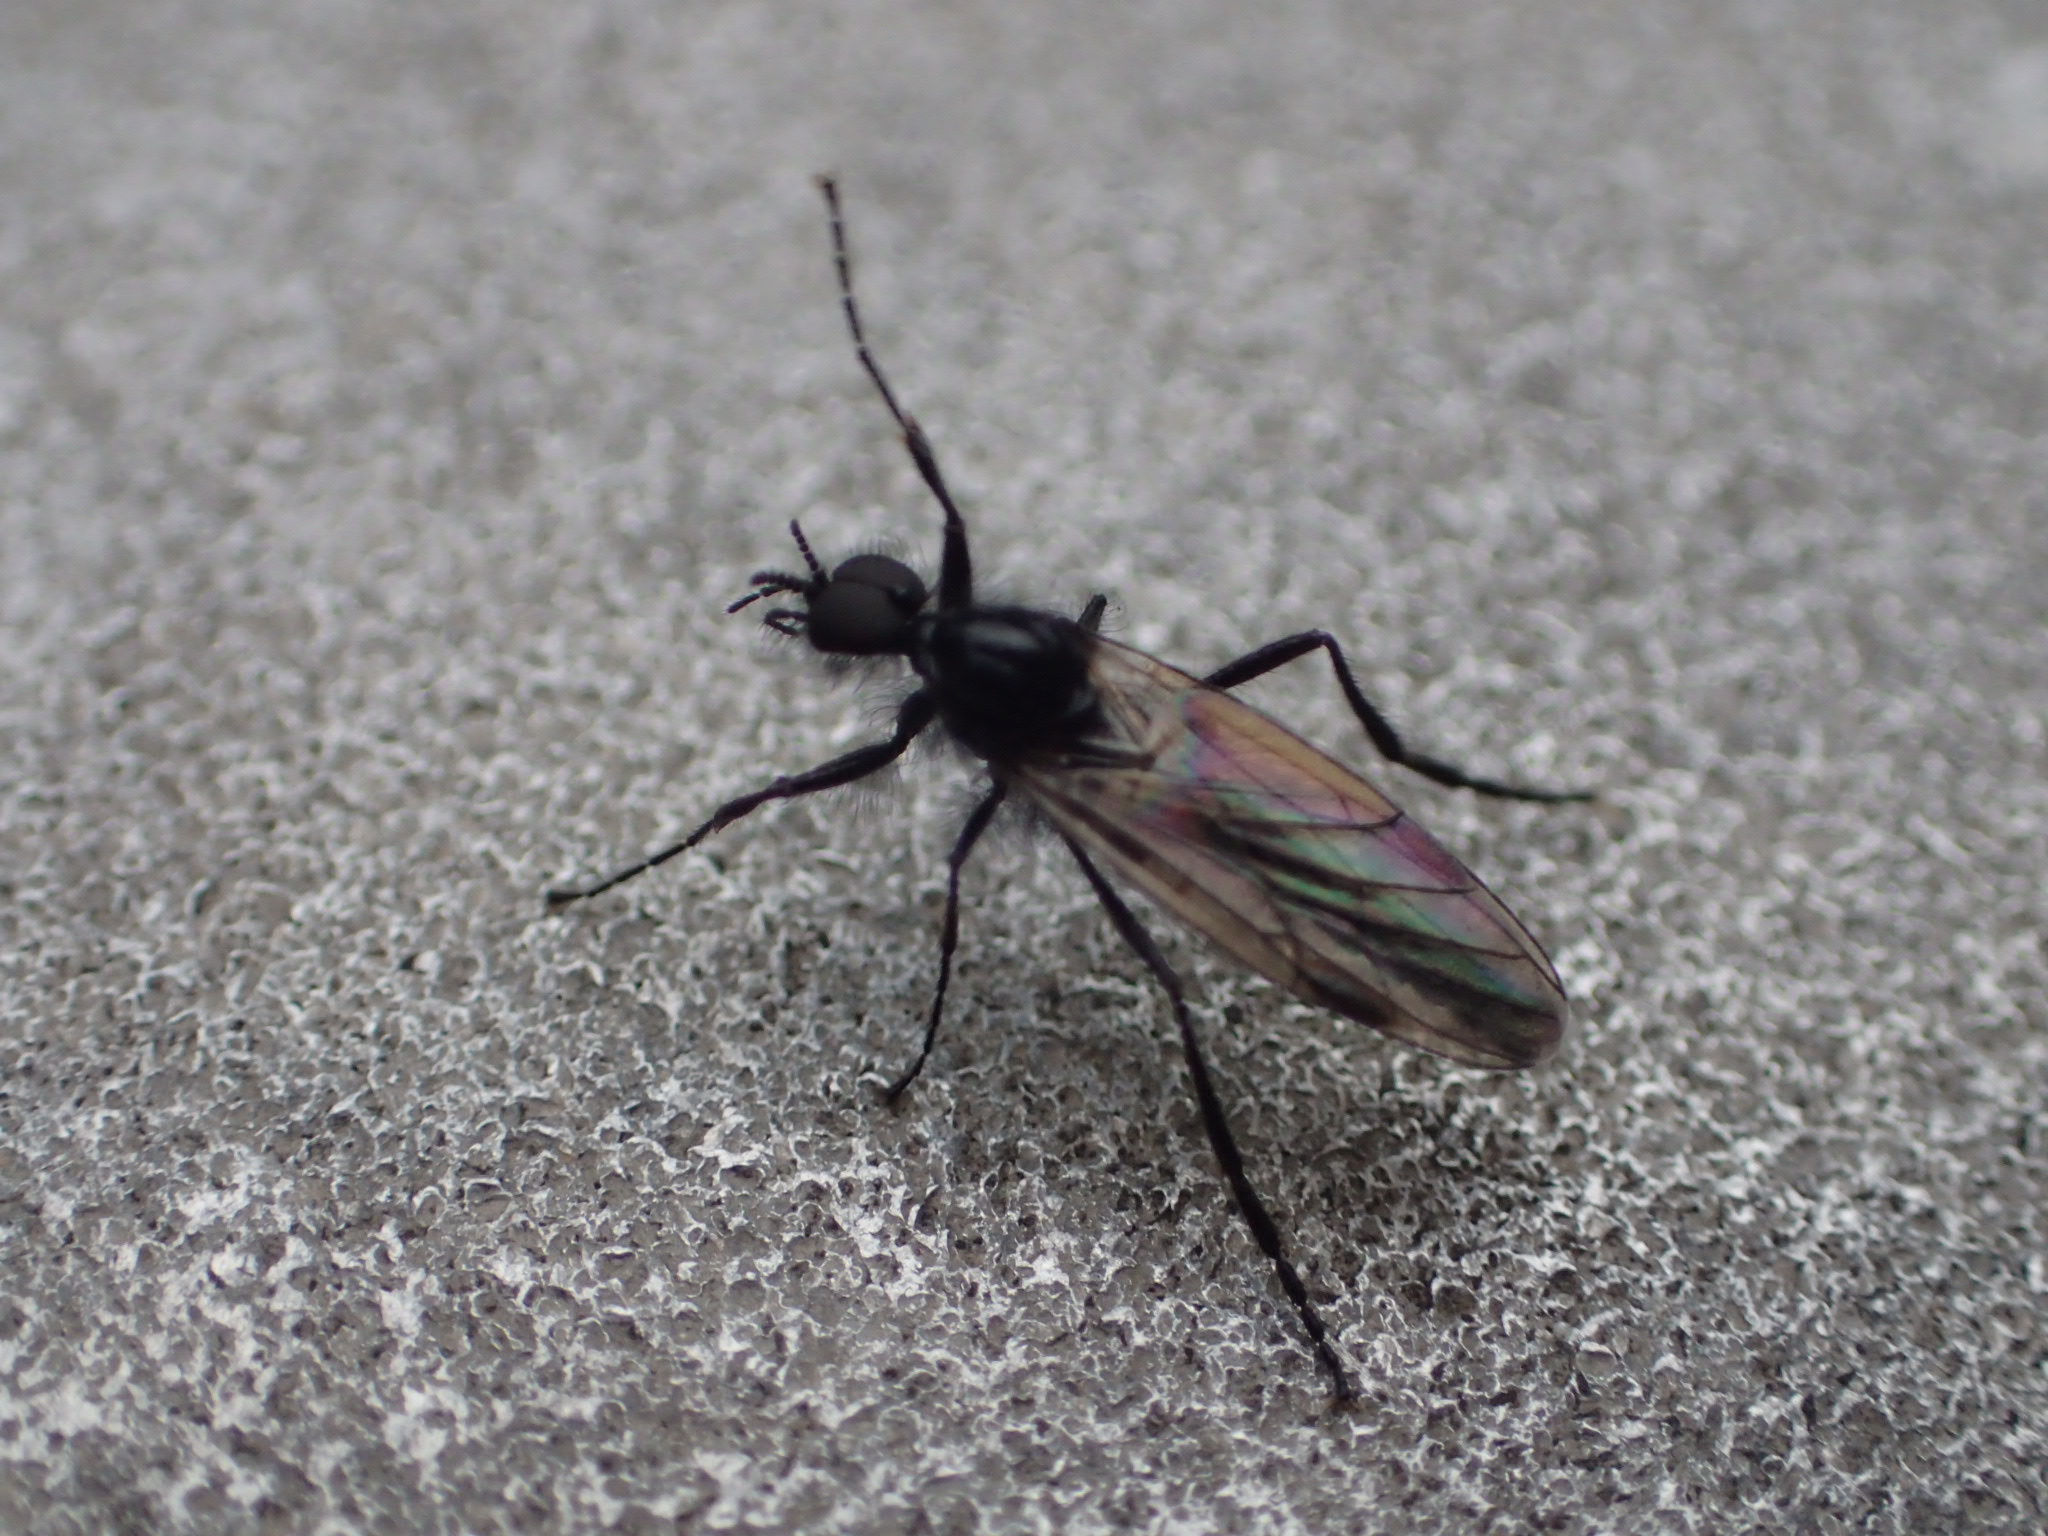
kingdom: Animalia
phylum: Arthropoda
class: Insecta
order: Diptera
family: Bibionidae
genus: Bibio
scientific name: Bibio slossonae
